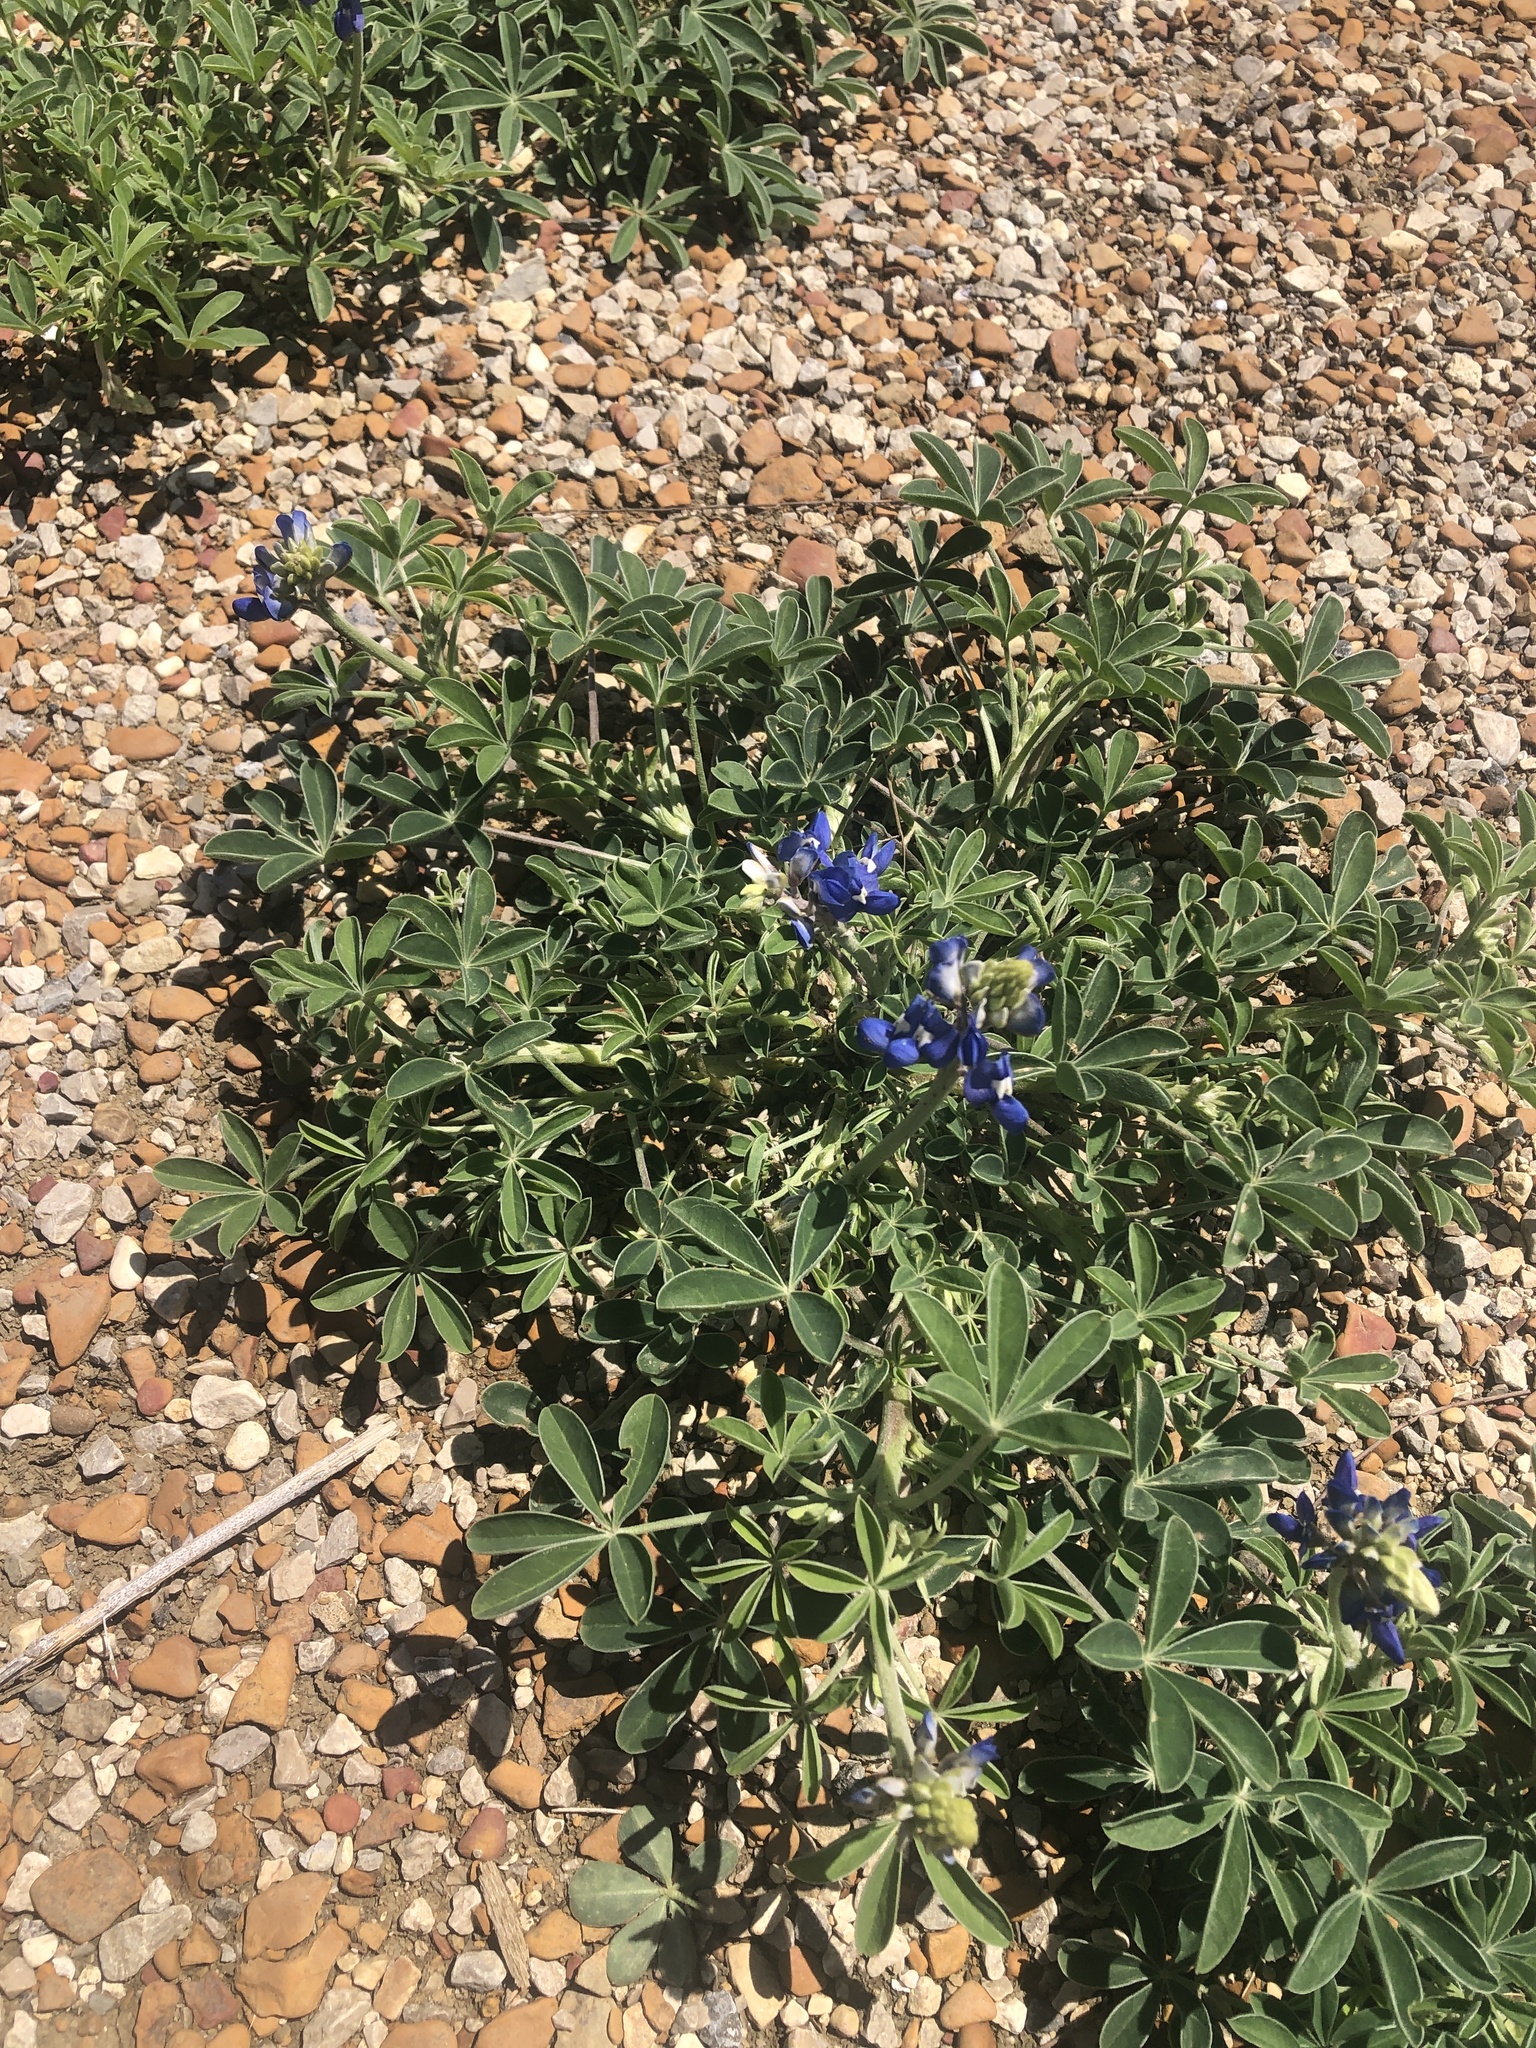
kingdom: Plantae
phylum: Tracheophyta
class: Magnoliopsida
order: Fabales
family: Fabaceae
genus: Lupinus
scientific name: Lupinus texensis
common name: Texas bluebonnet
